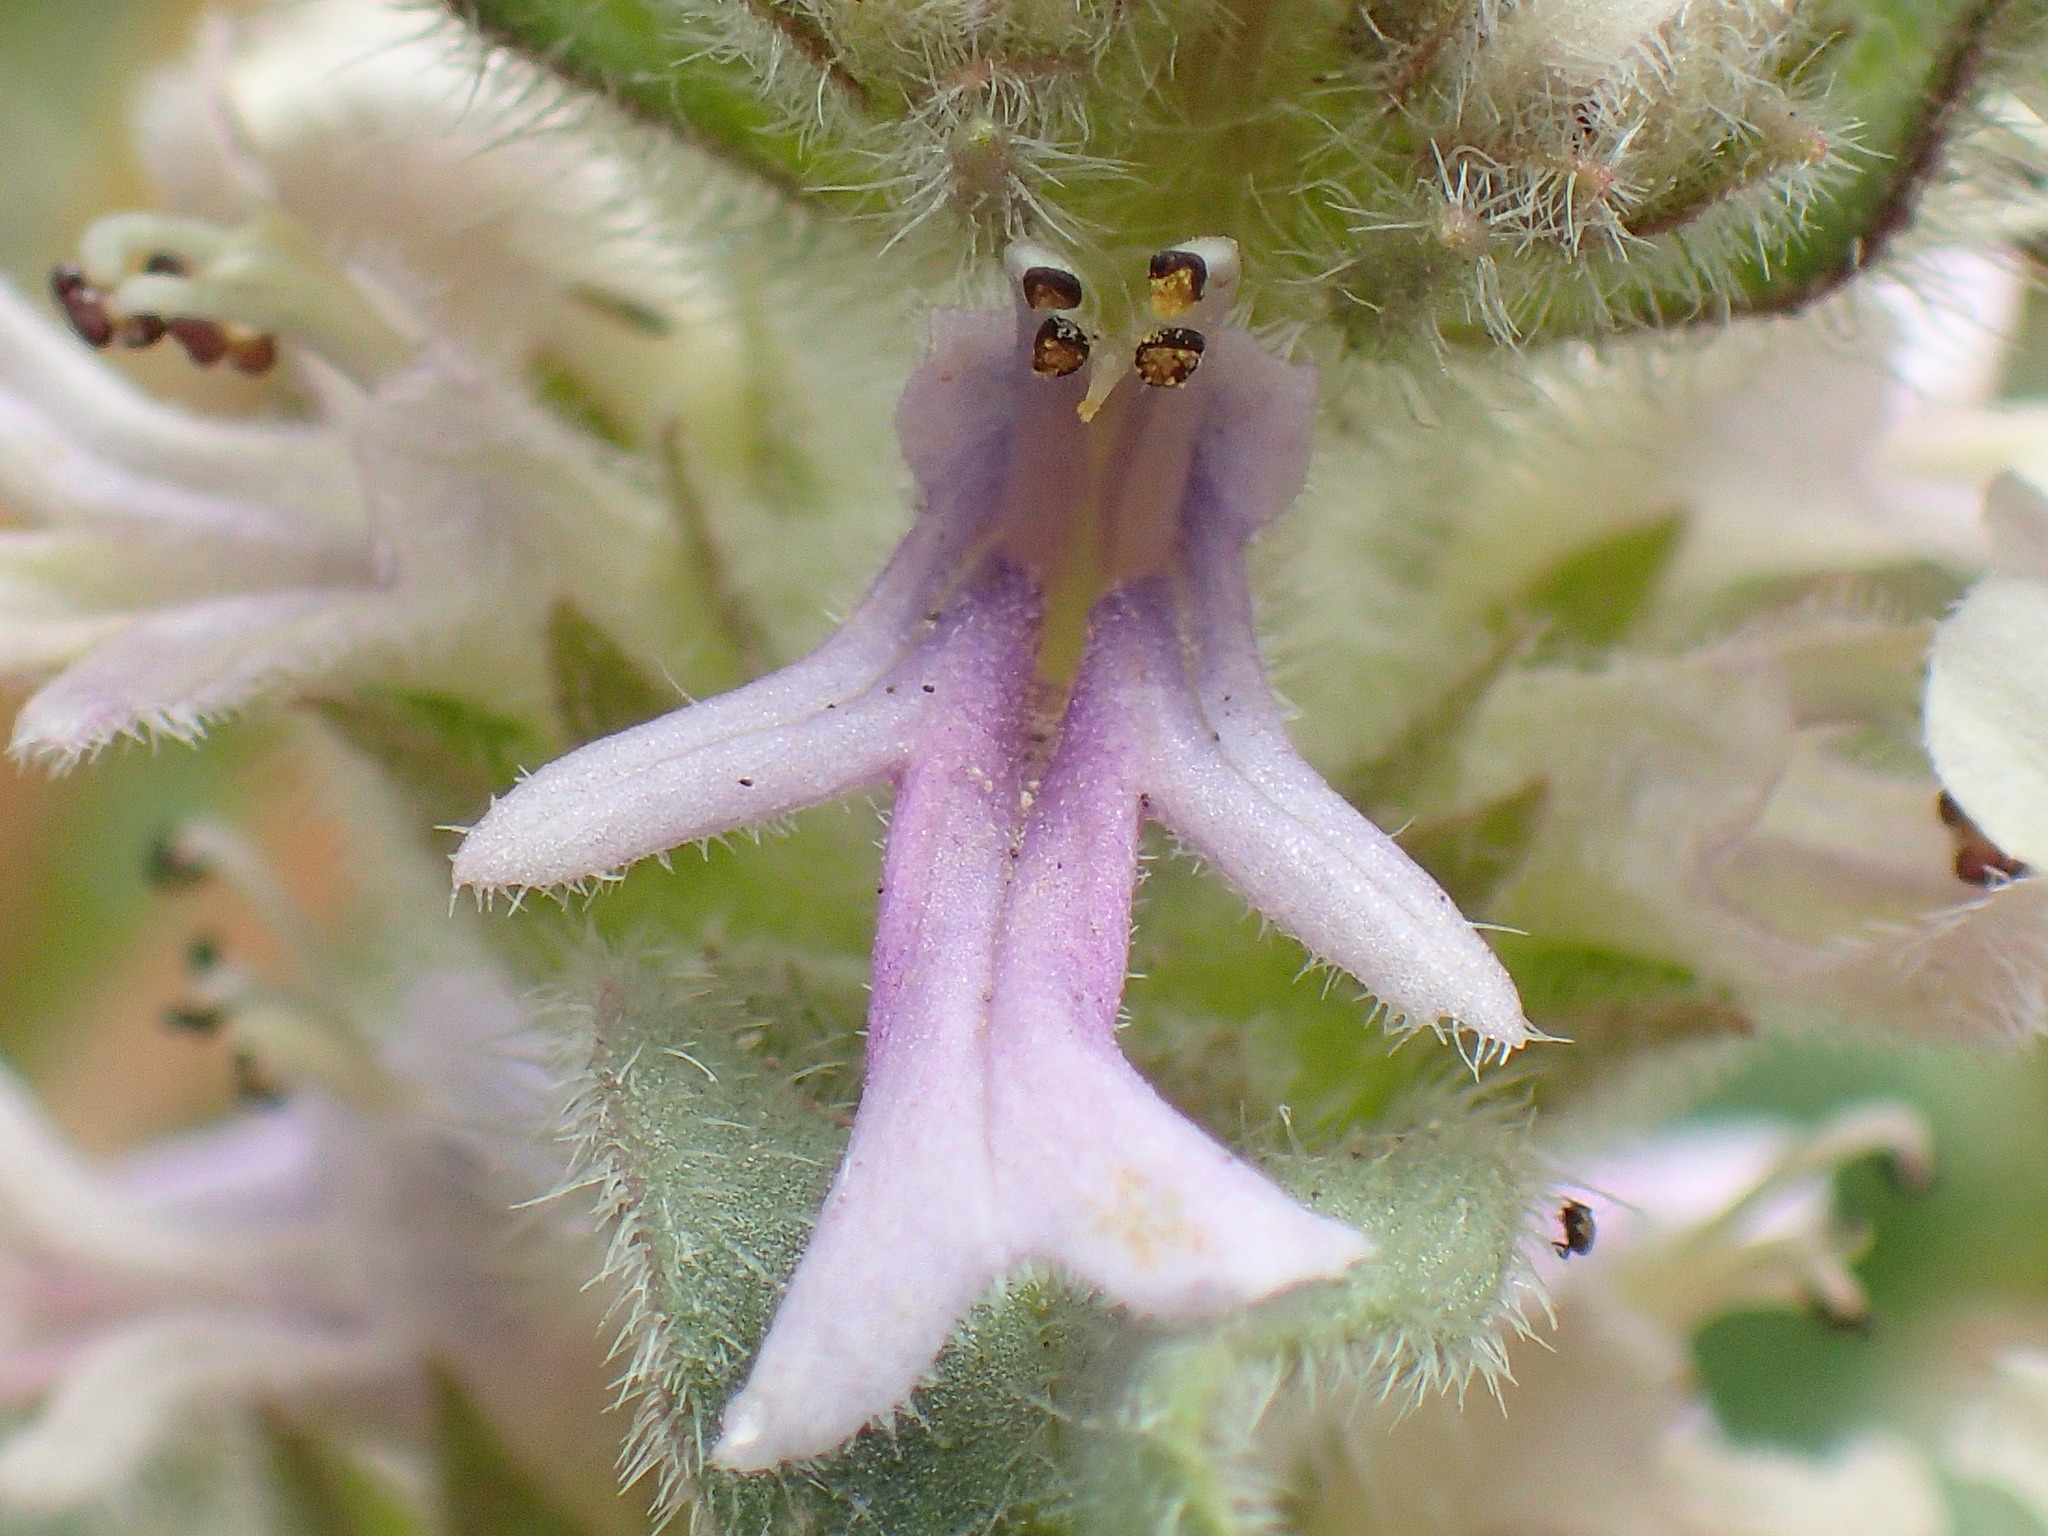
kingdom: Plantae
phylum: Tracheophyta
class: Magnoliopsida
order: Lamiales
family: Lamiaceae
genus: Ajuga
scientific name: Ajuga ophrydis
